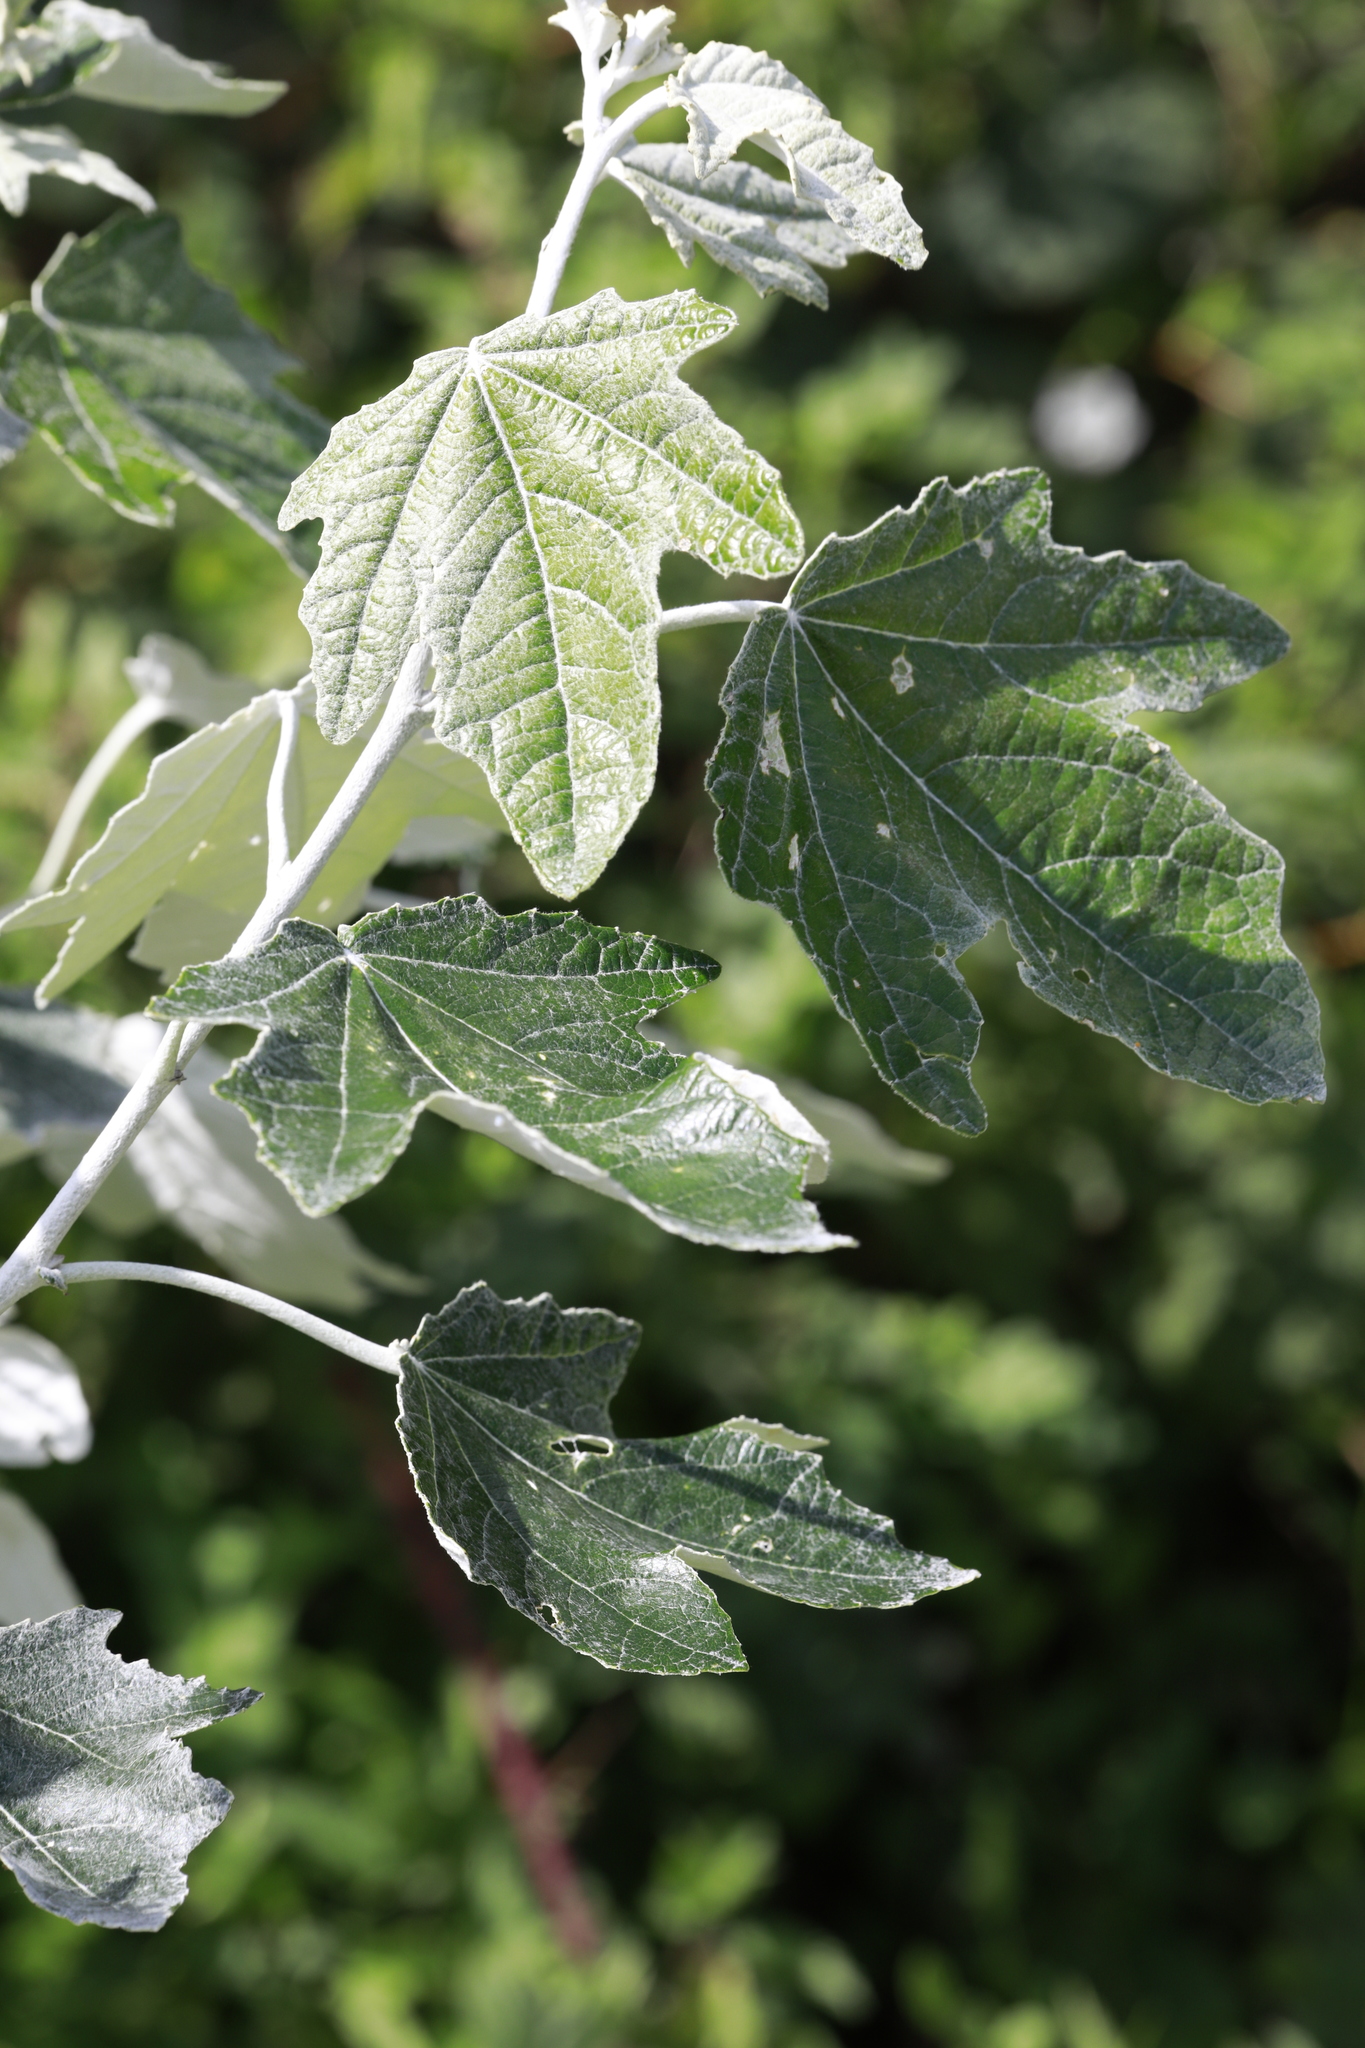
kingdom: Plantae
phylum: Tracheophyta
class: Magnoliopsida
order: Malpighiales
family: Salicaceae
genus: Populus
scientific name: Populus alba
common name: White poplar
